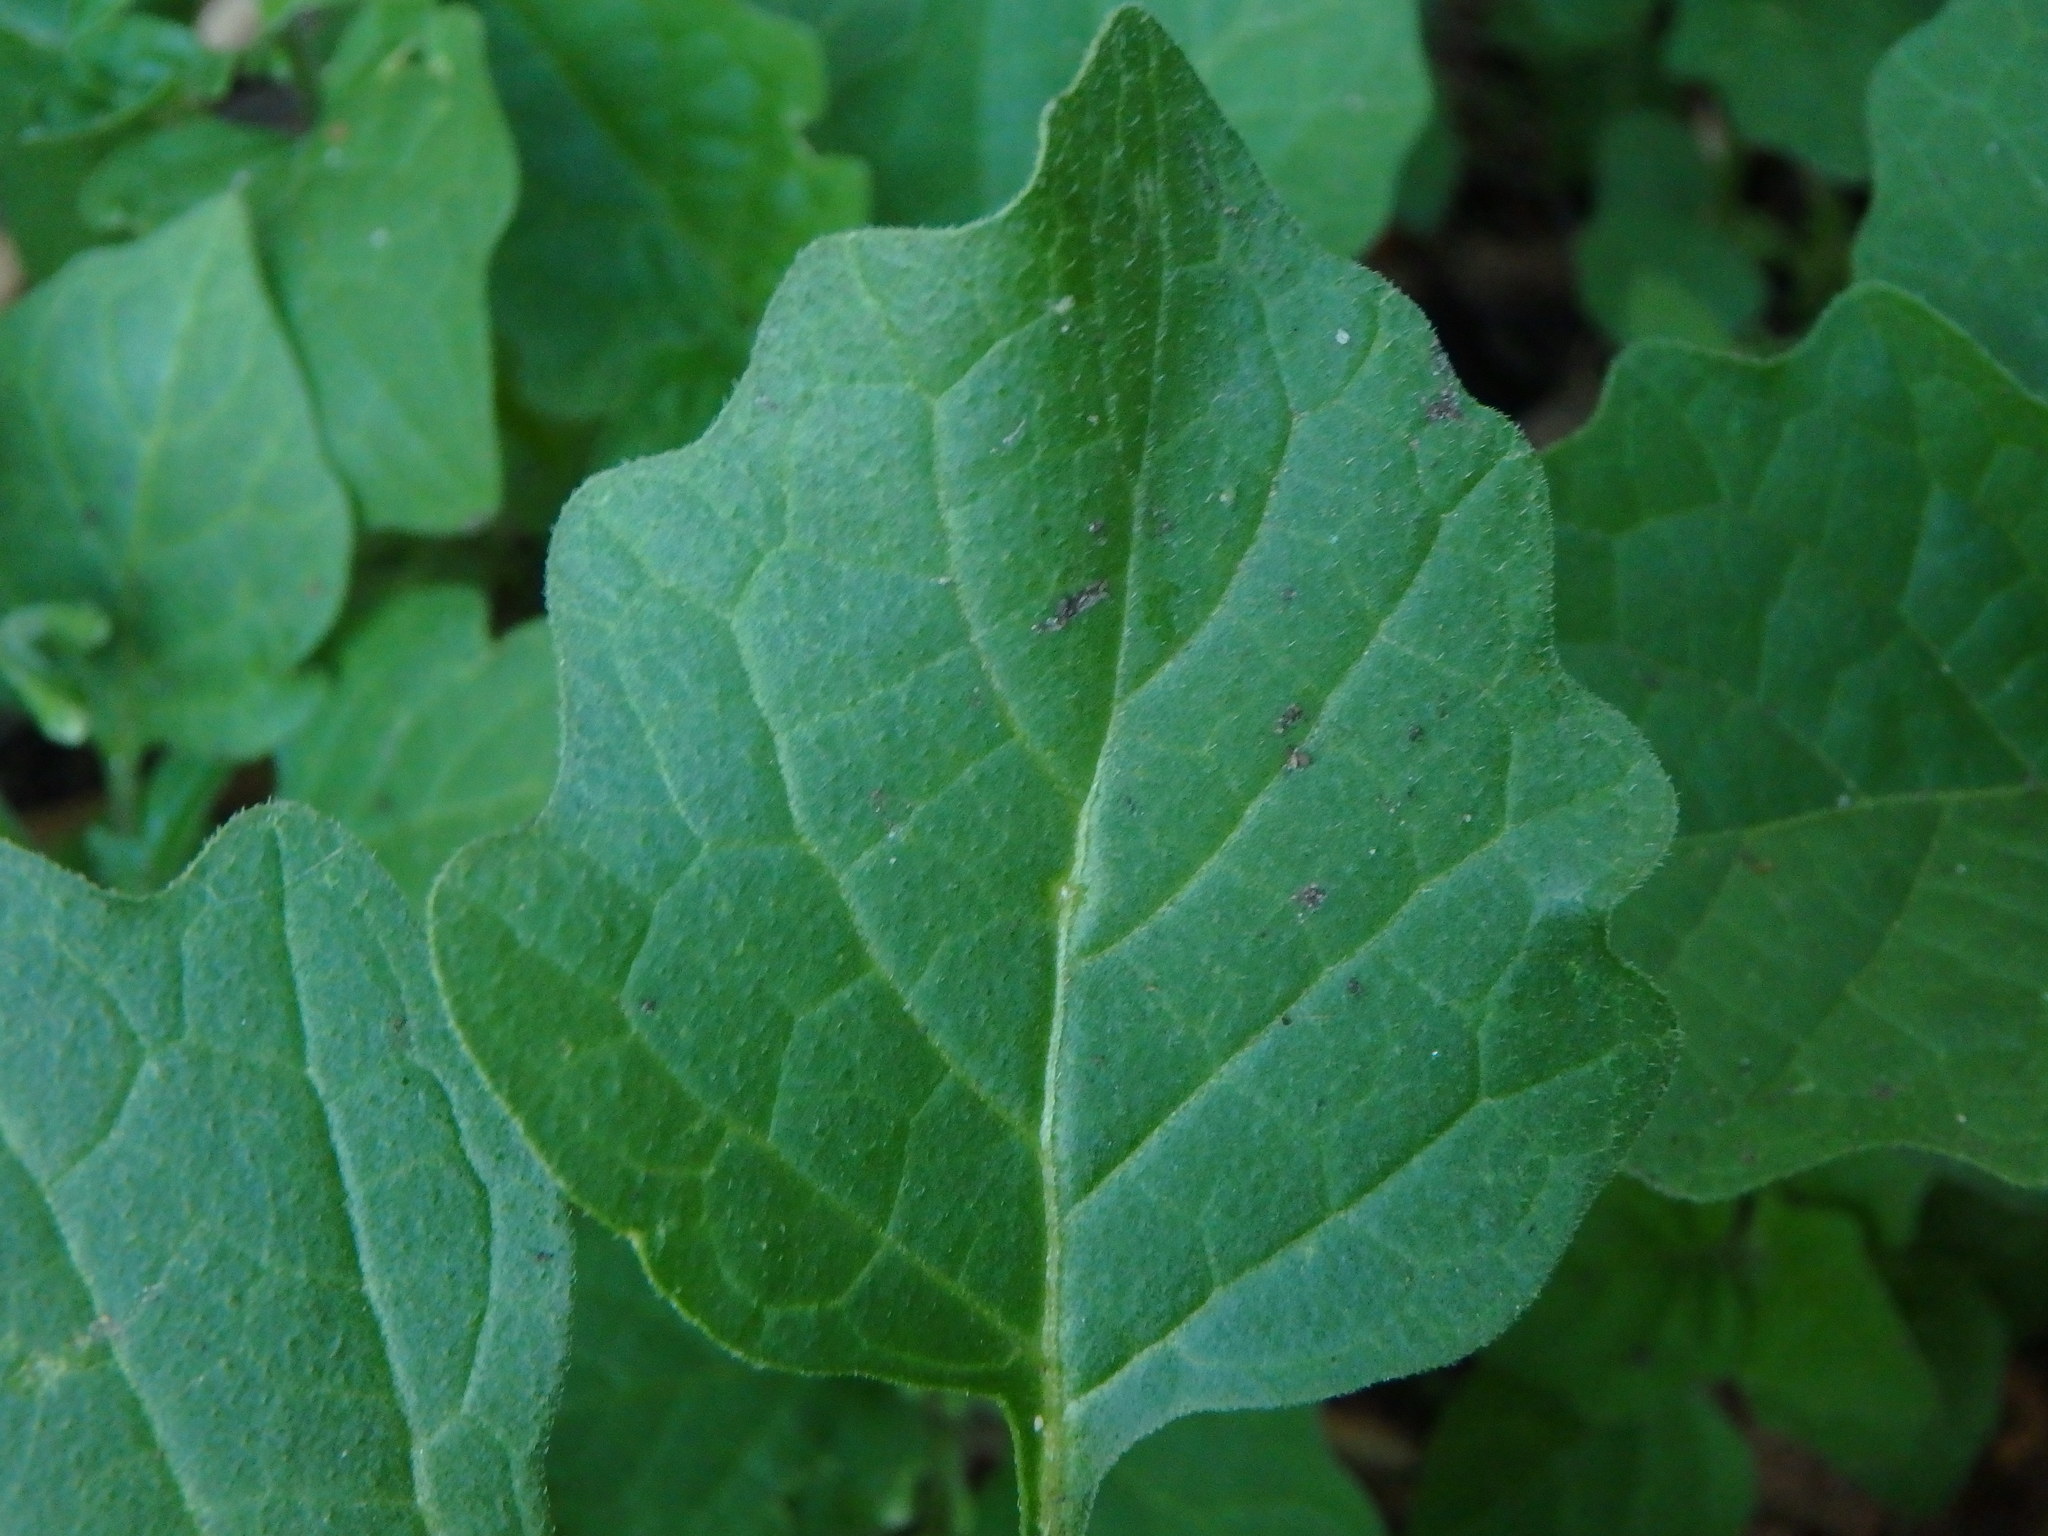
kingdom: Plantae
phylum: Tracheophyta
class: Magnoliopsida
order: Solanales
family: Solanaceae
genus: Solanum
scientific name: Solanum nigrum
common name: Black nightshade
